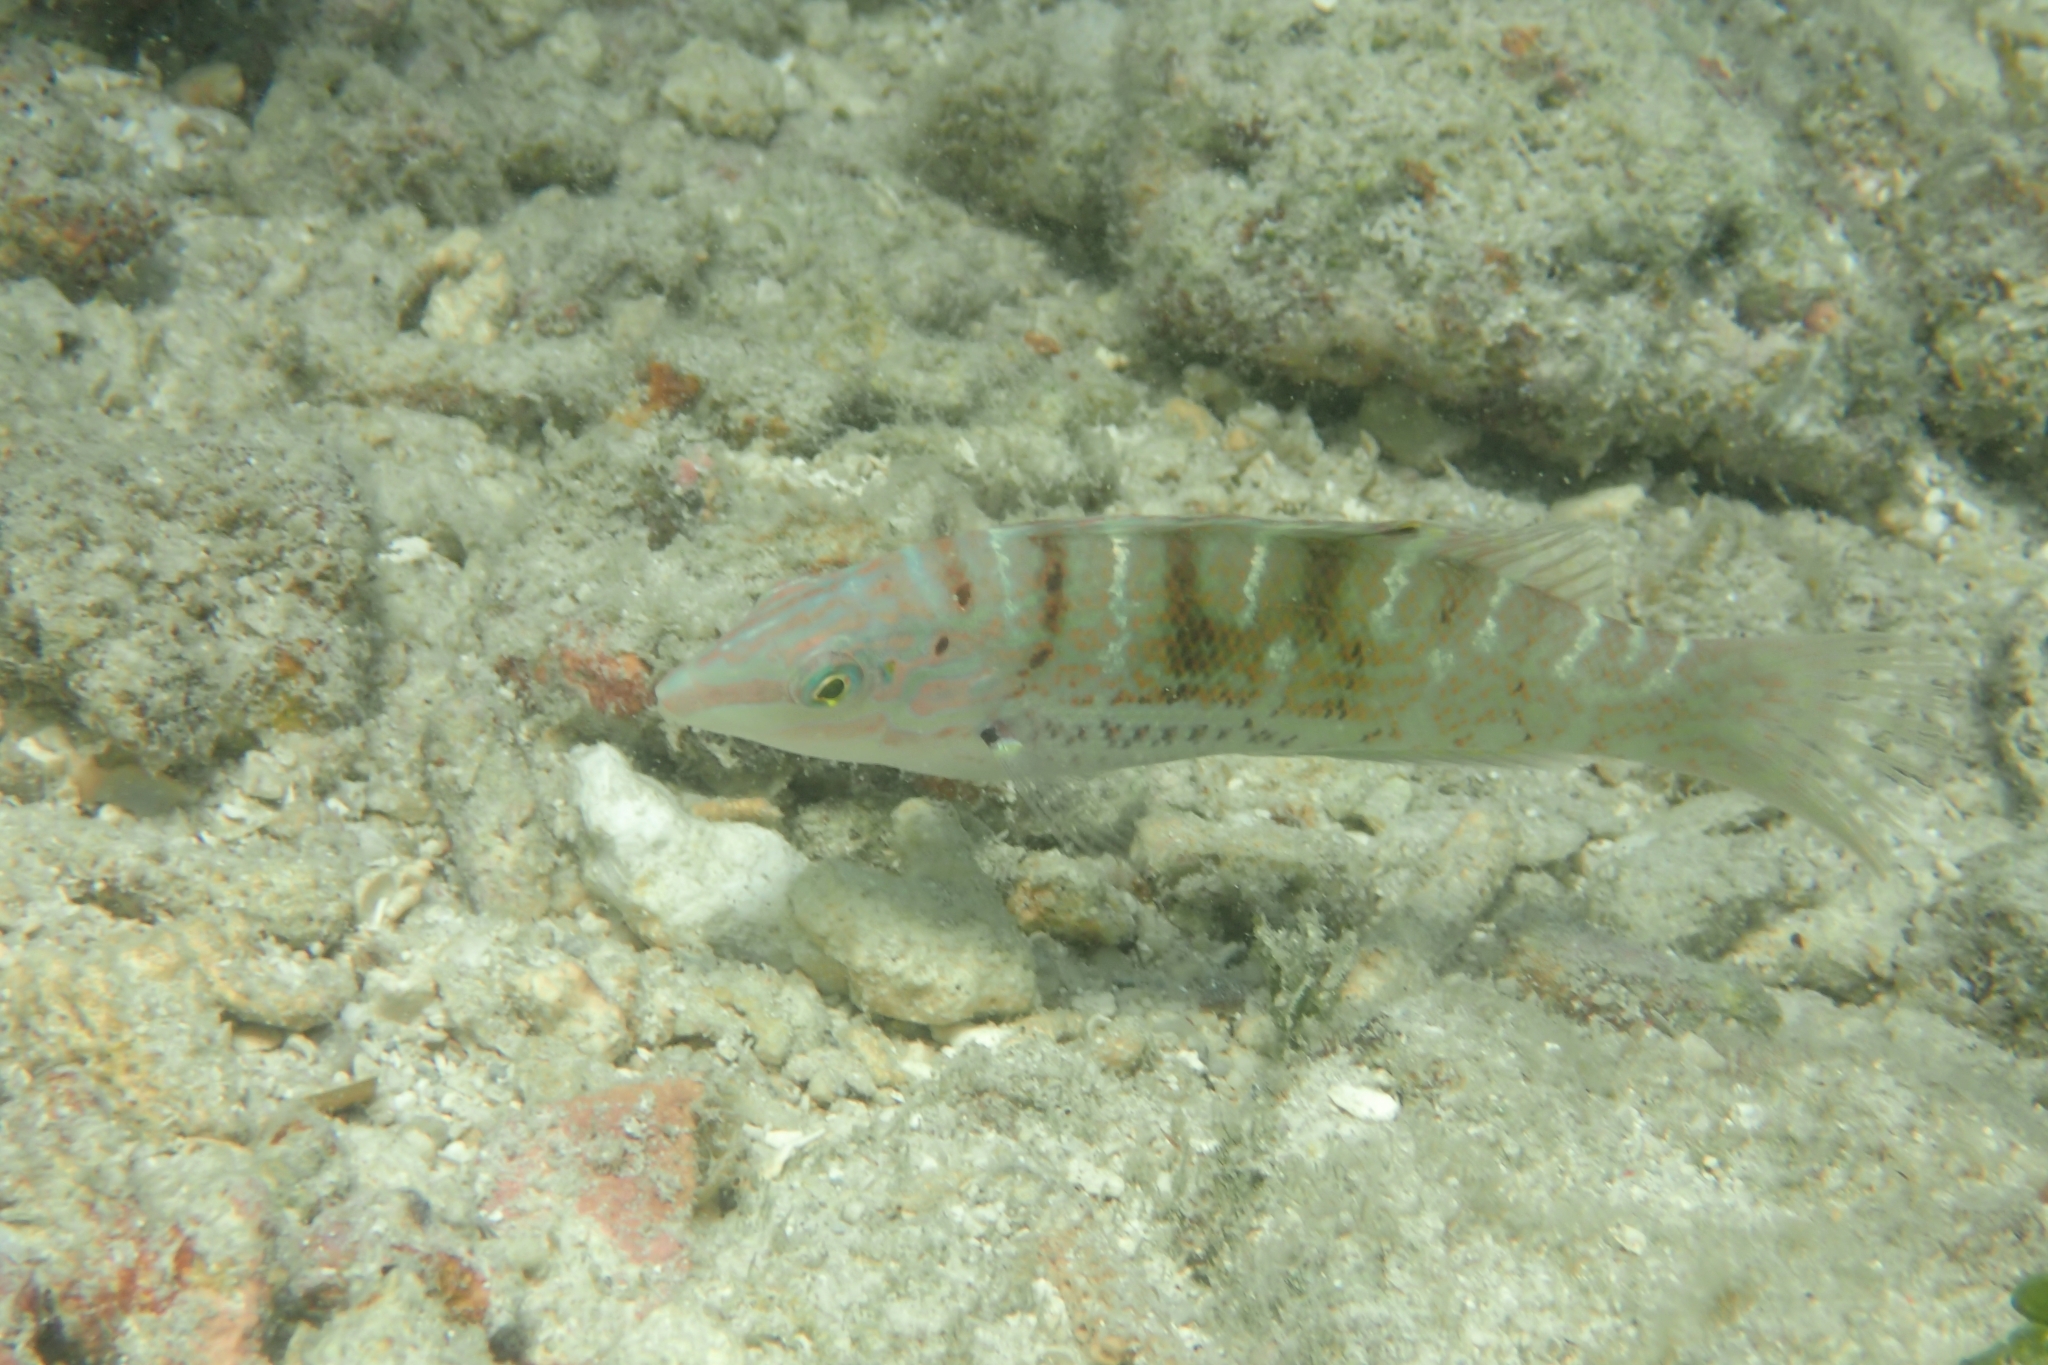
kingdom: Animalia
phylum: Chordata
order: Perciformes
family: Labridae
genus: Coris
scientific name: Coris batuensis
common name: Batu coris
